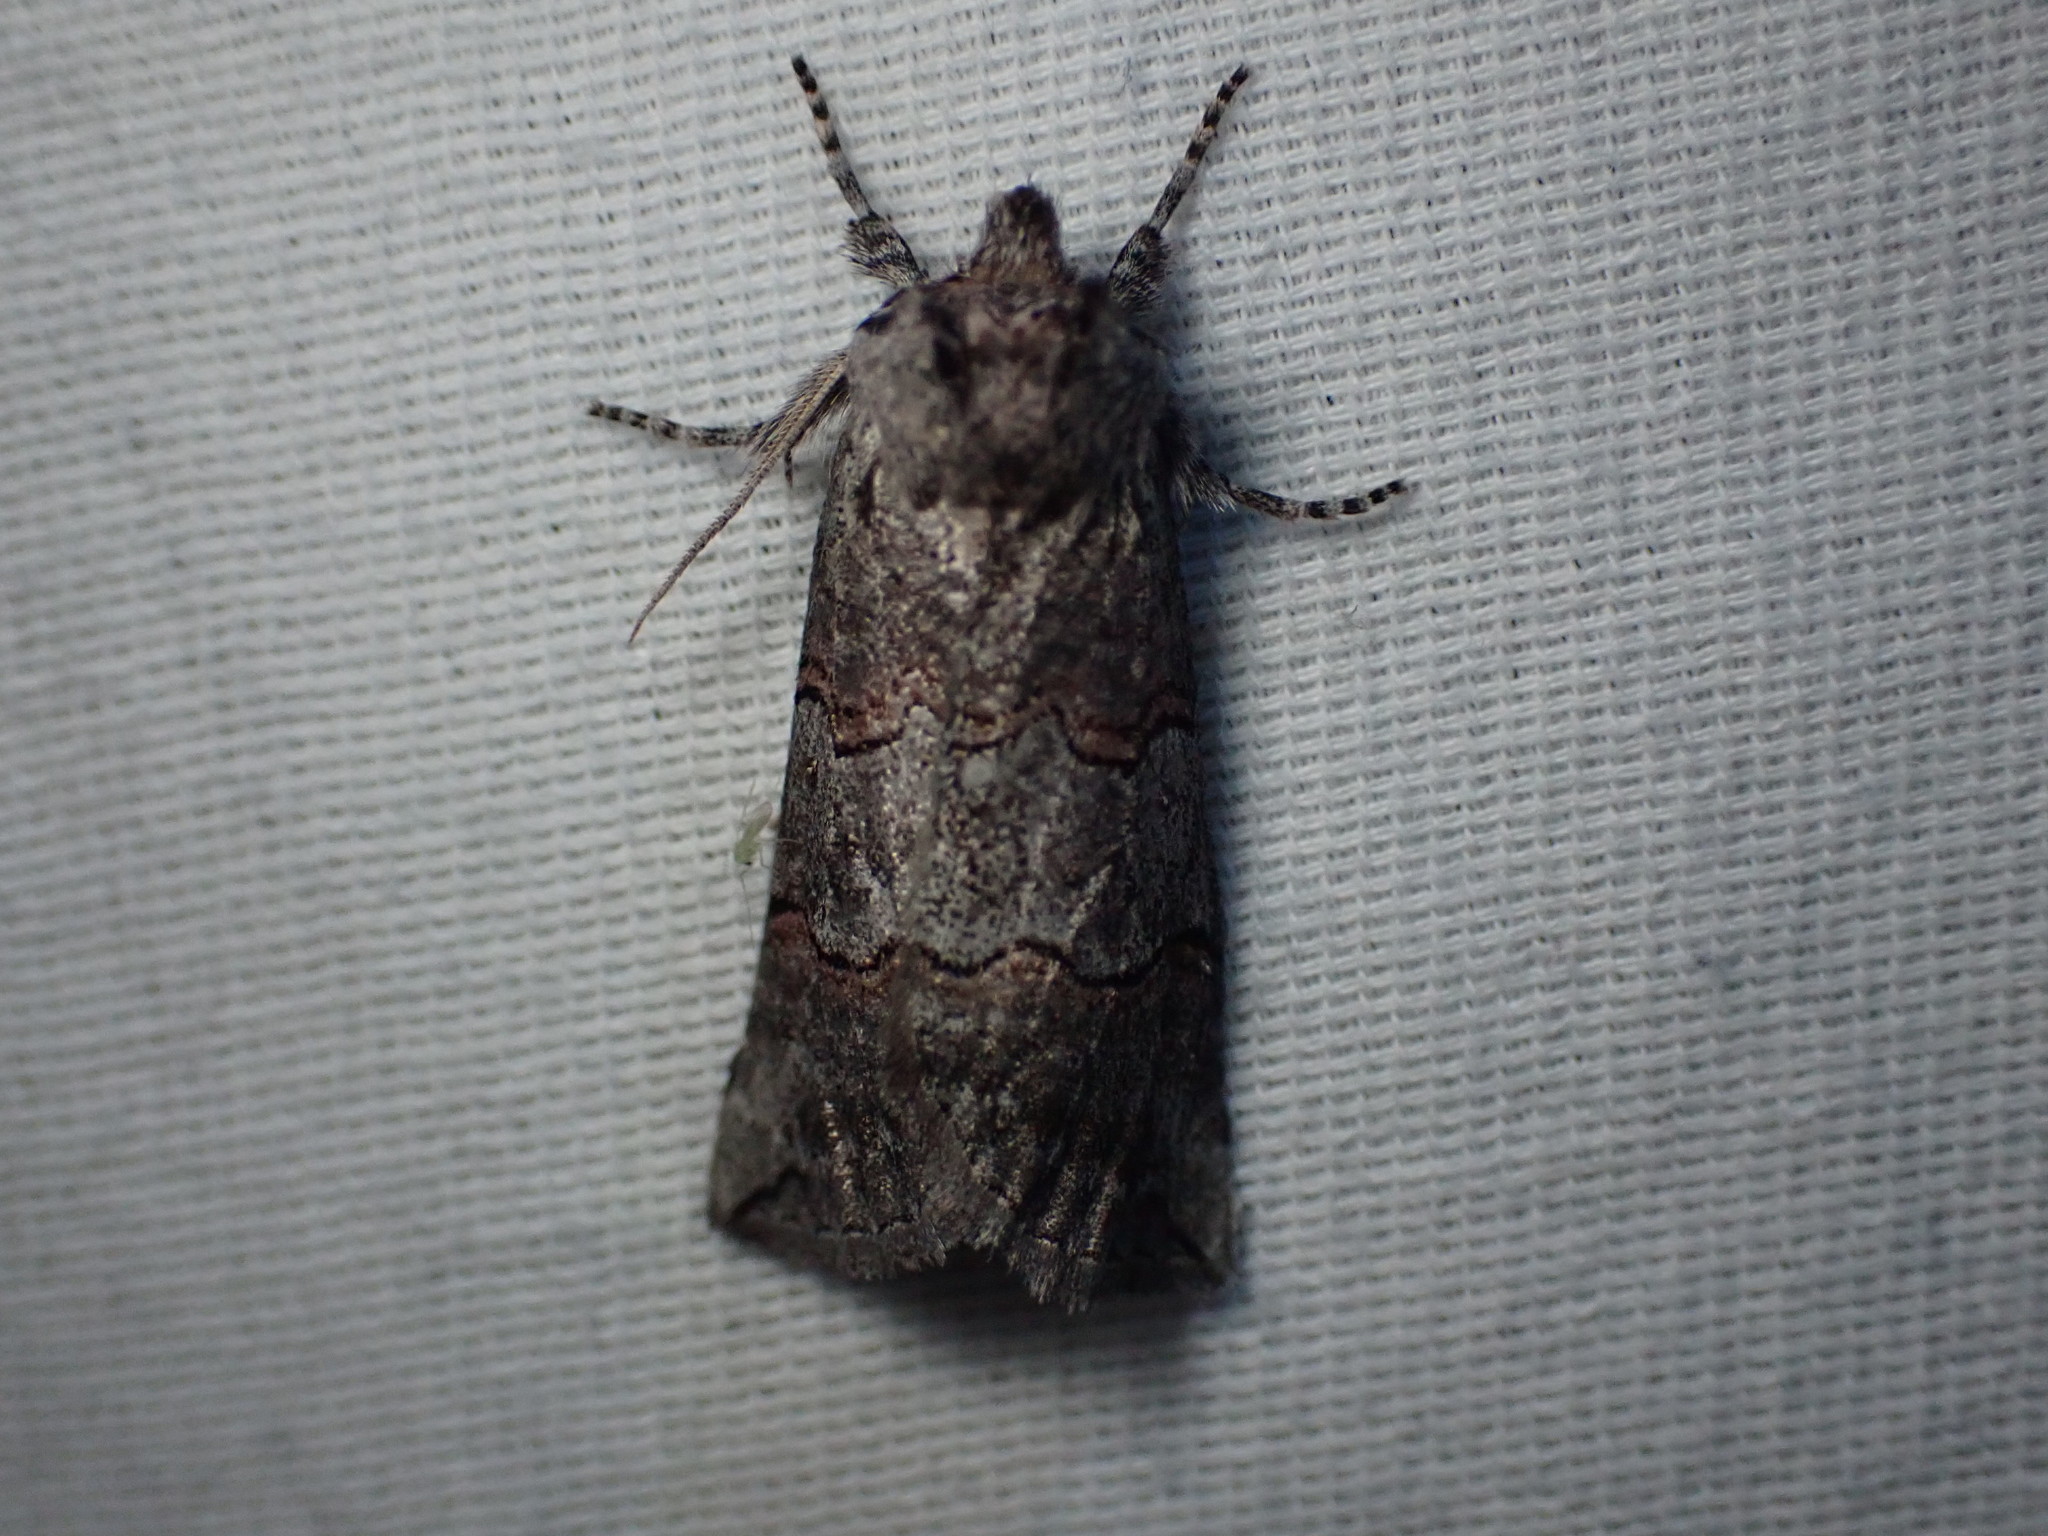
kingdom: Animalia
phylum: Arthropoda
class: Insecta
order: Lepidoptera
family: Drepanidae
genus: Ceranemota
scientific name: Ceranemota fasciata
